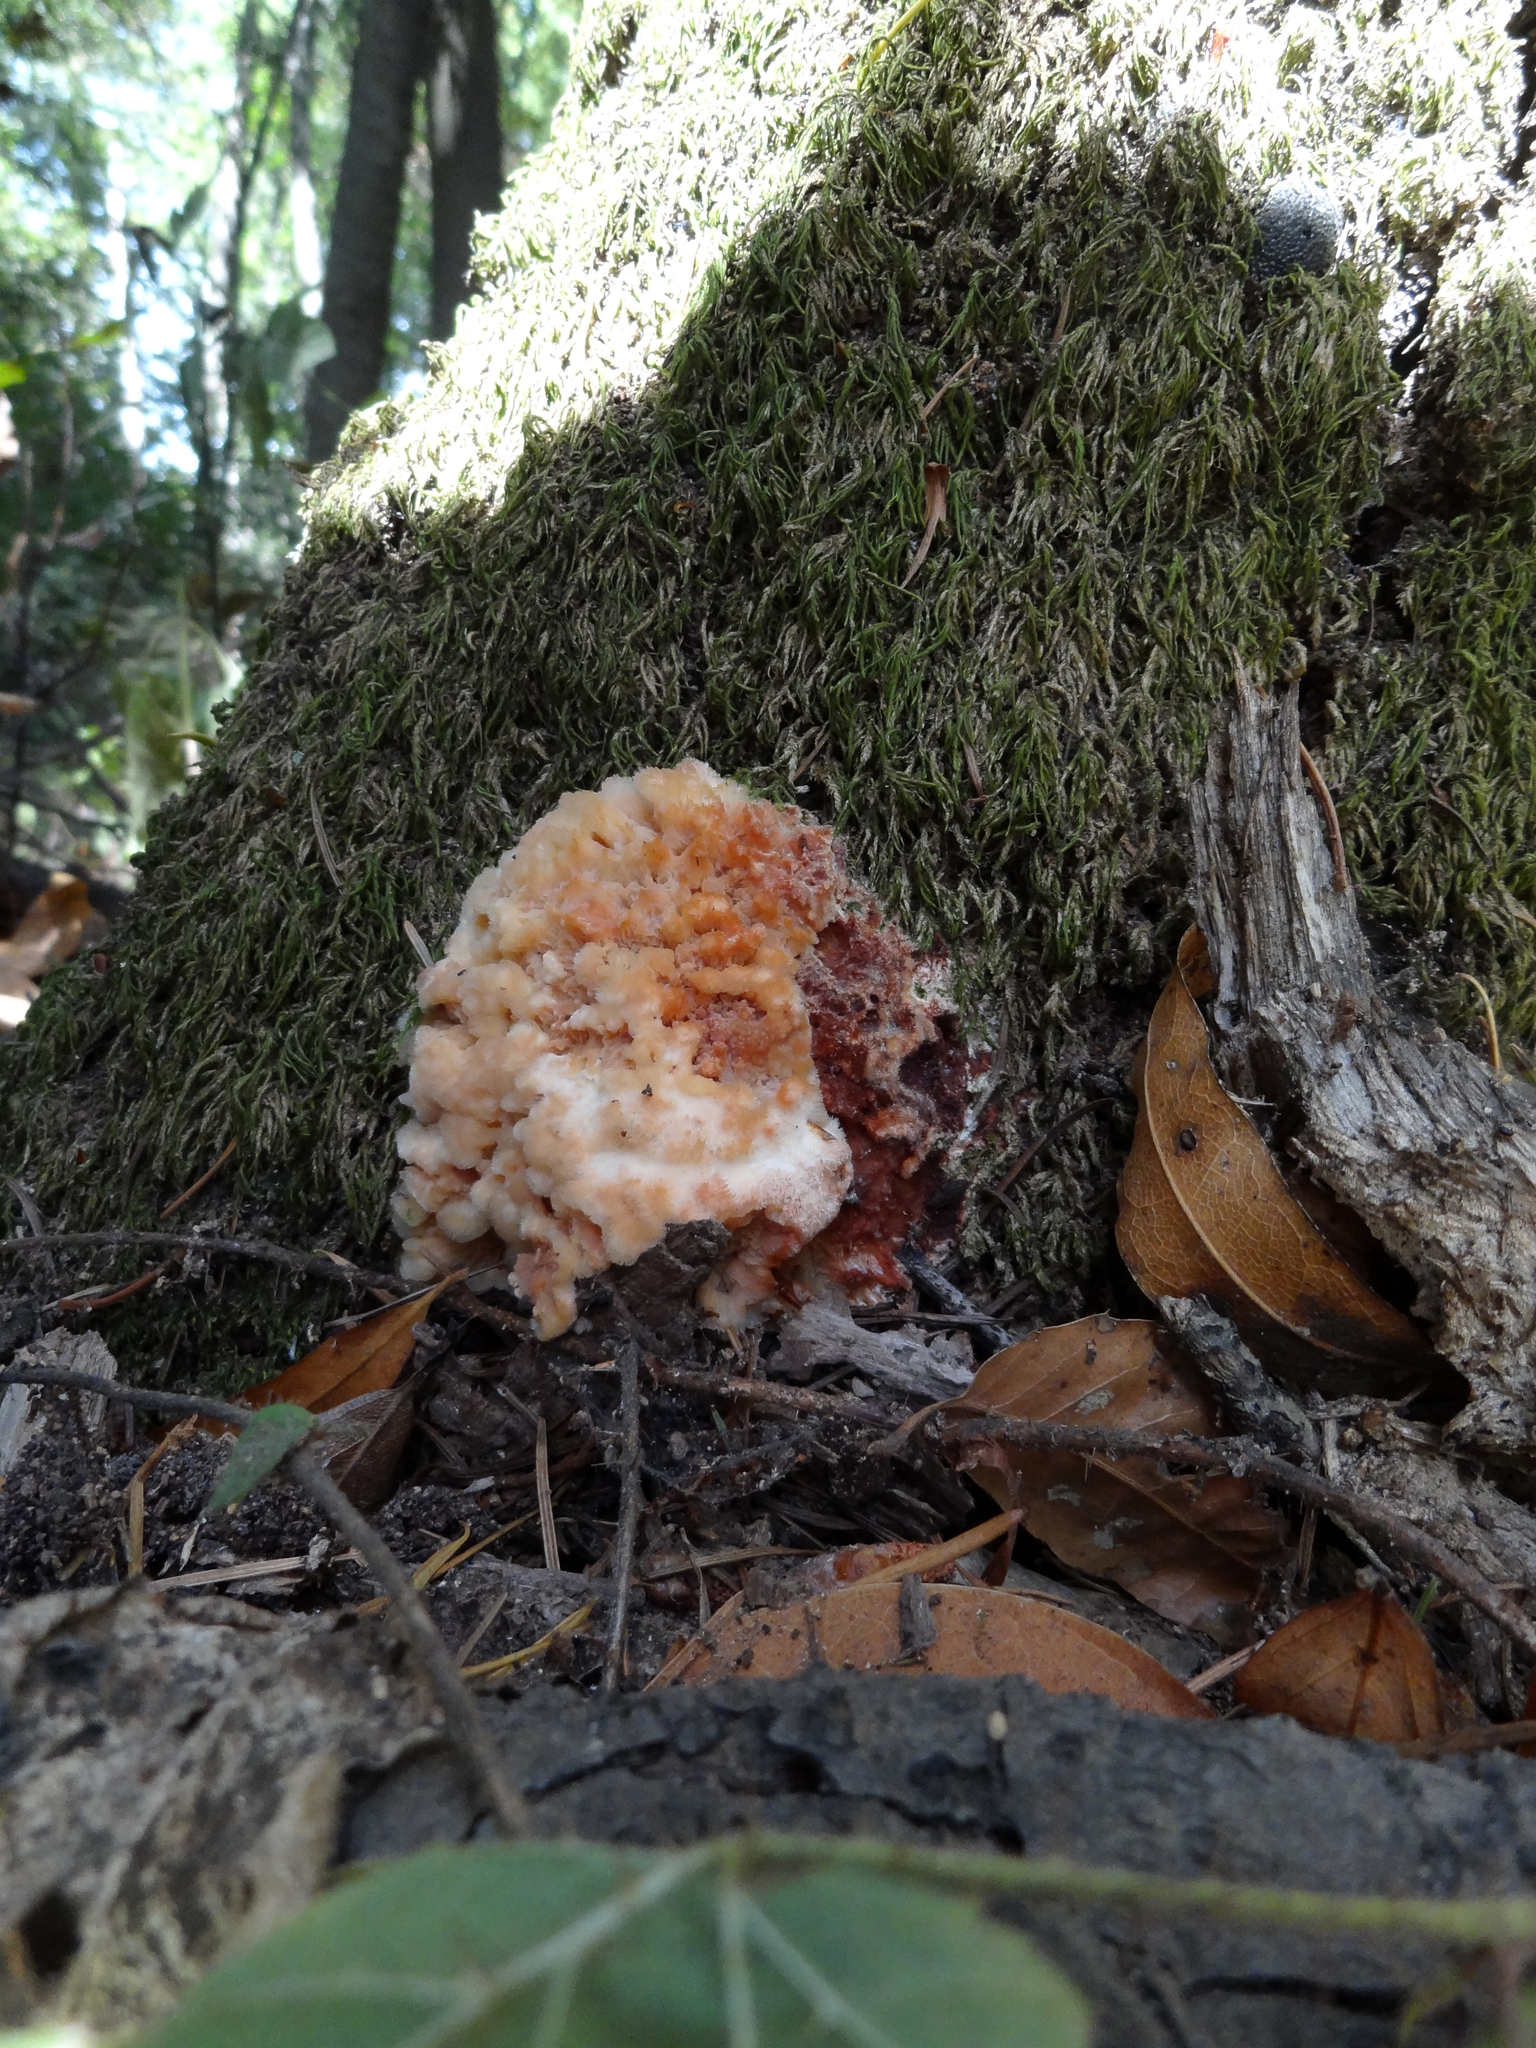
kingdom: Fungi
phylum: Basidiomycota
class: Agaricomycetes
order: Polyporales
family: Meruliaceae
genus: Phlebia
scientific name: Phlebia tremellosa
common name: Jelly rot
